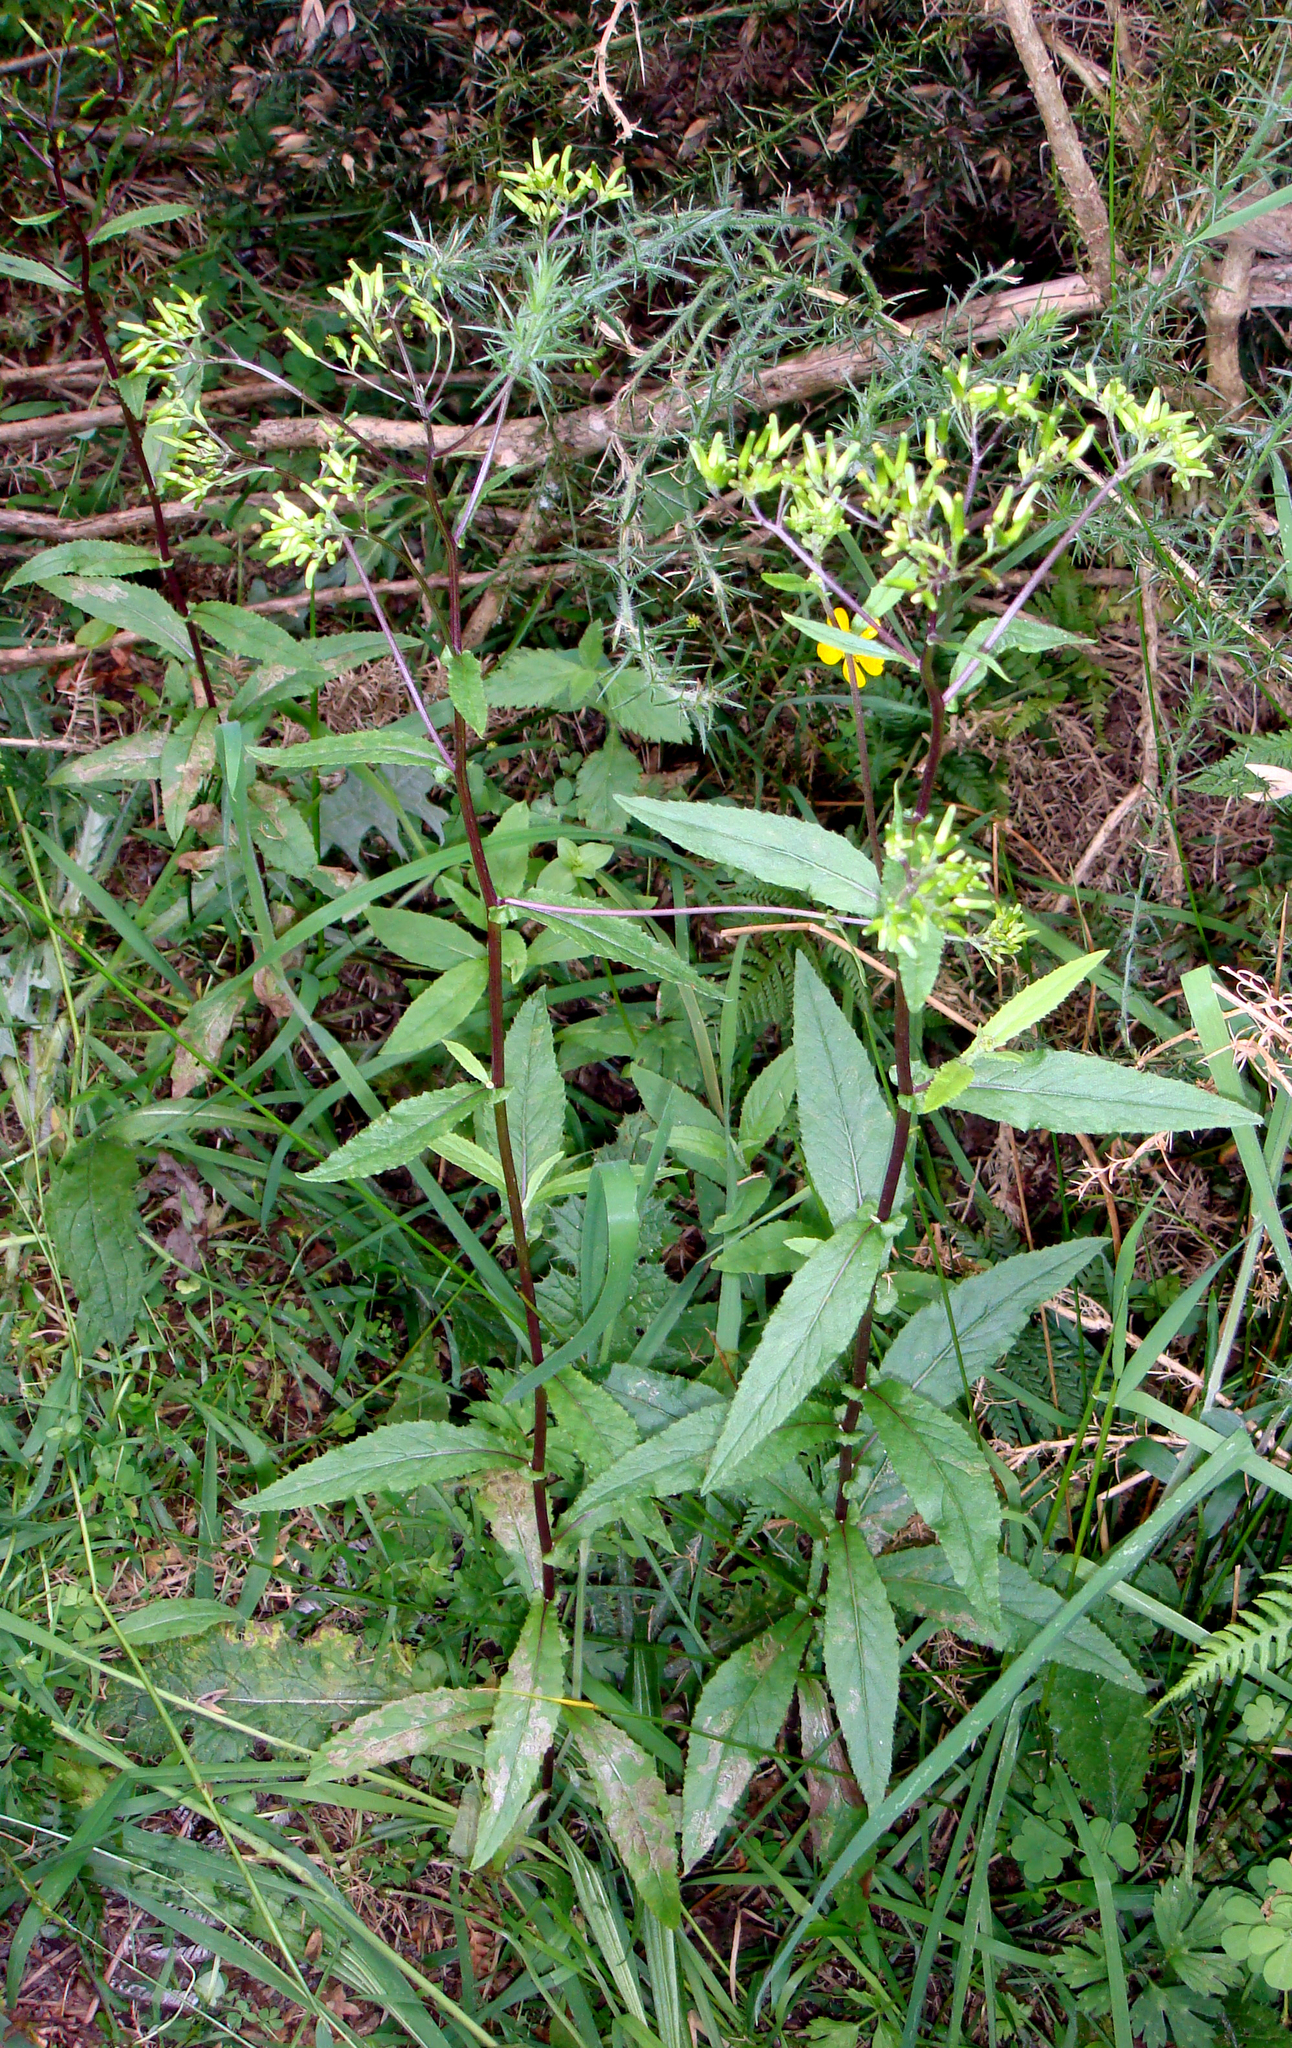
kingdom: Plantae
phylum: Tracheophyta
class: Magnoliopsida
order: Asterales
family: Asteraceae
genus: Senecio
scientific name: Senecio minimus
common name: Toothed fireweed
